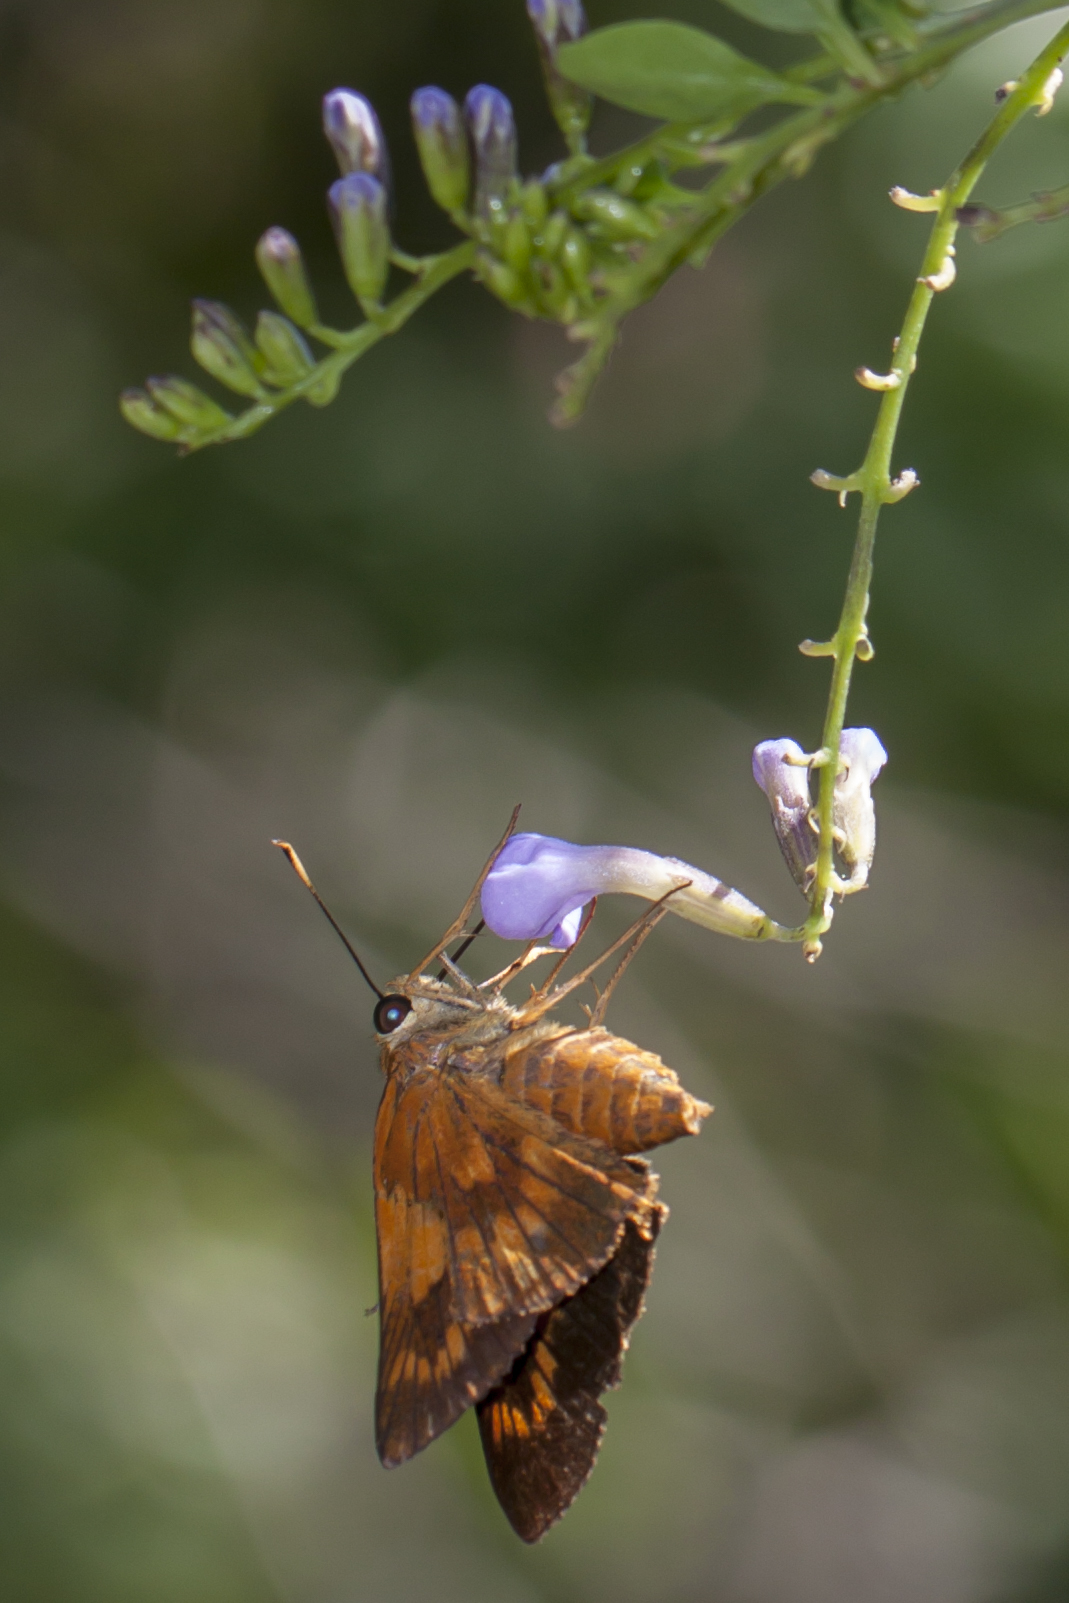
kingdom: Animalia
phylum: Arthropoda
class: Insecta
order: Lepidoptera
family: Hesperiidae
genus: Pyrrhocalles
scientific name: Pyrrhocalles antiqua
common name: Caribbean skipper
